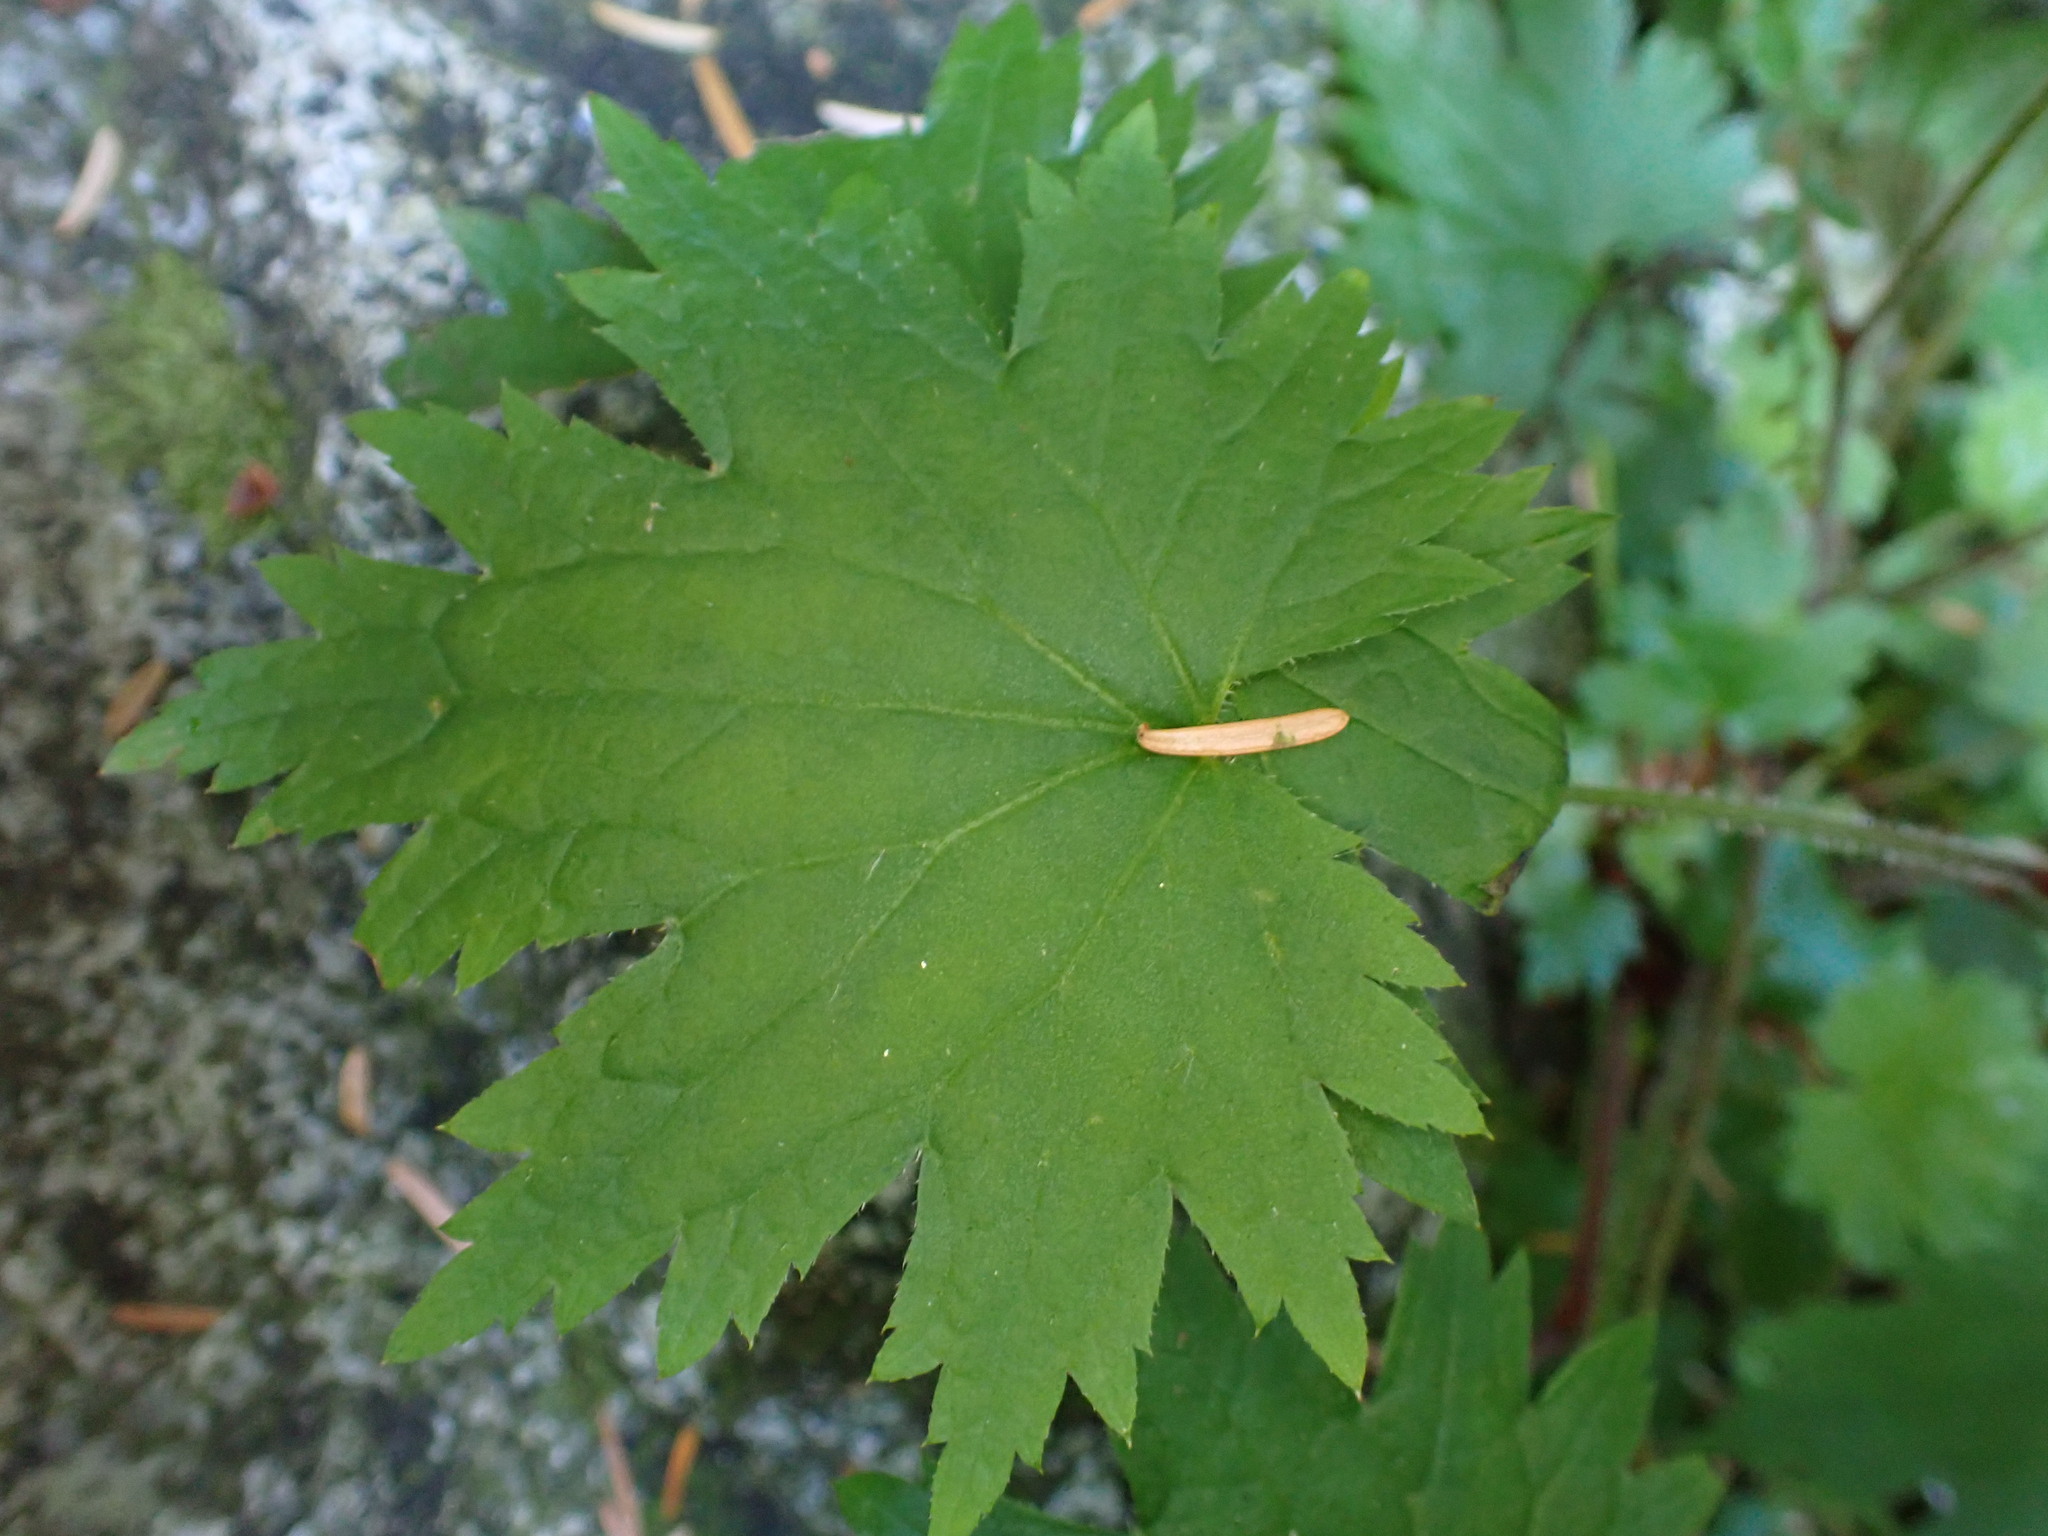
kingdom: Plantae
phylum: Tracheophyta
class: Magnoliopsida
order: Saxifragales
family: Saxifragaceae
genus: Boykinia
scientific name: Boykinia occidentalis
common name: Coast boykinia
